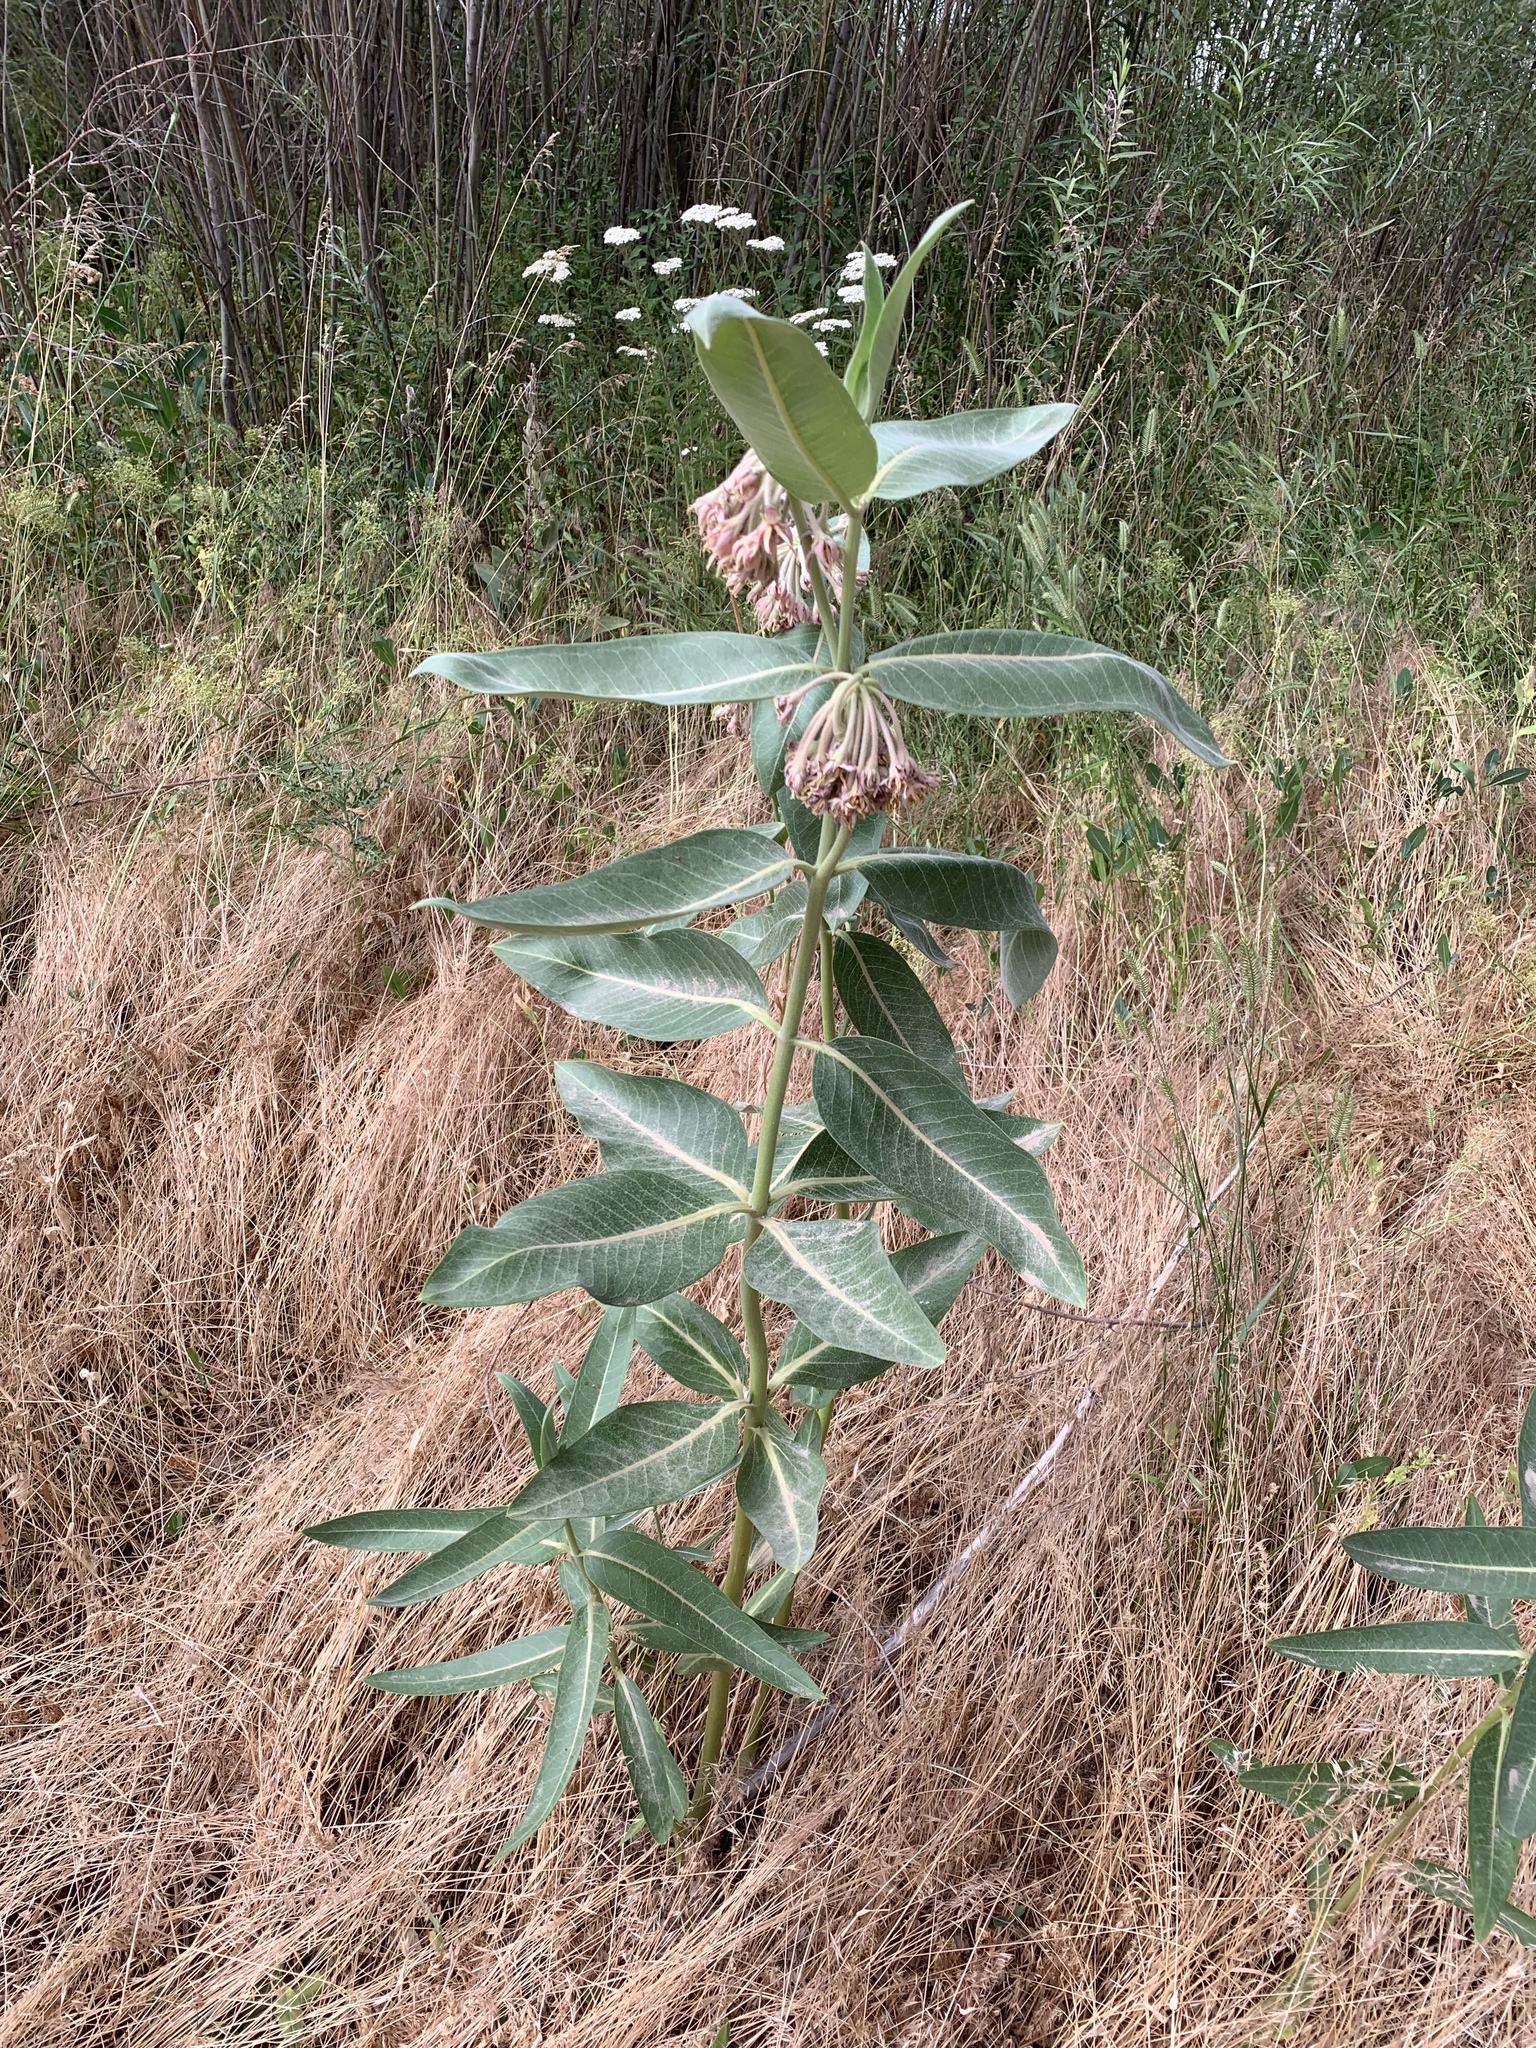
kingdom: Plantae
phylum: Tracheophyta
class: Magnoliopsida
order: Gentianales
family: Apocynaceae
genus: Asclepias
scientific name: Asclepias speciosa
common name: Showy milkweed
